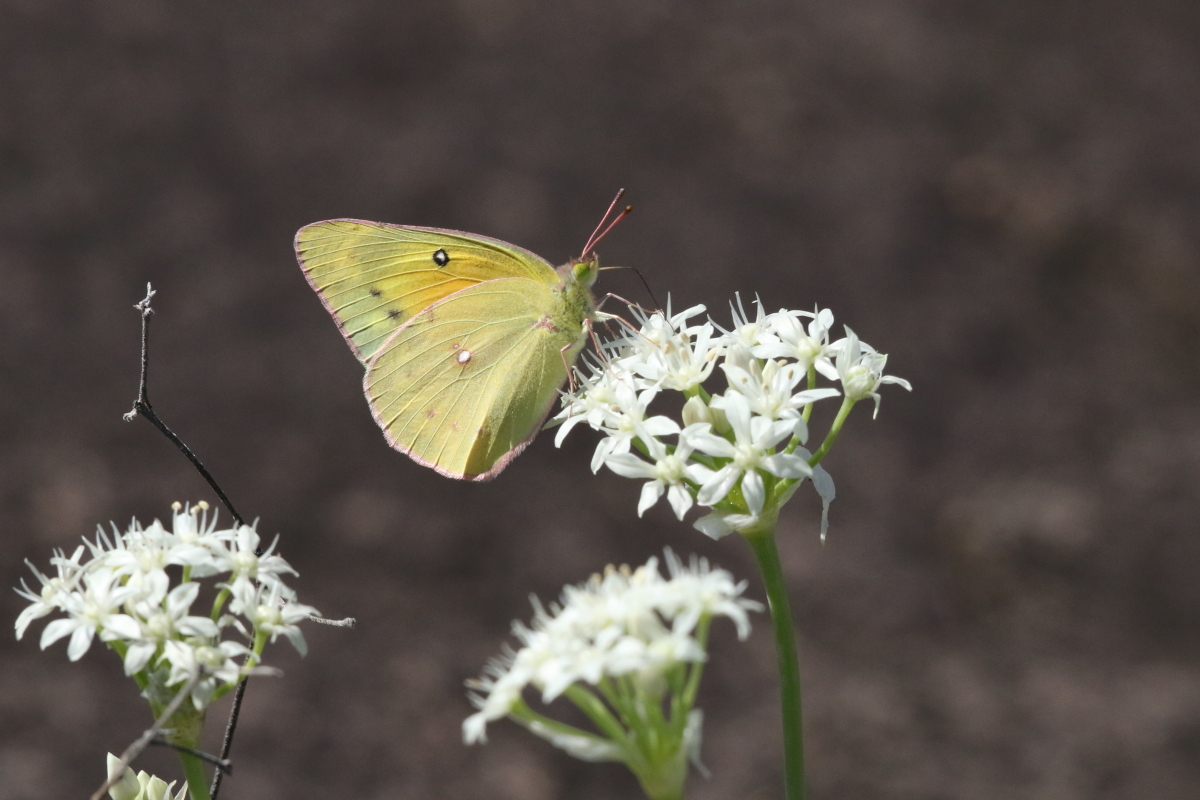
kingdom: Animalia
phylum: Arthropoda
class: Insecta
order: Lepidoptera
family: Pieridae
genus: Colias
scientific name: Colias eurytheme
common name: Alfalfa butterfly
